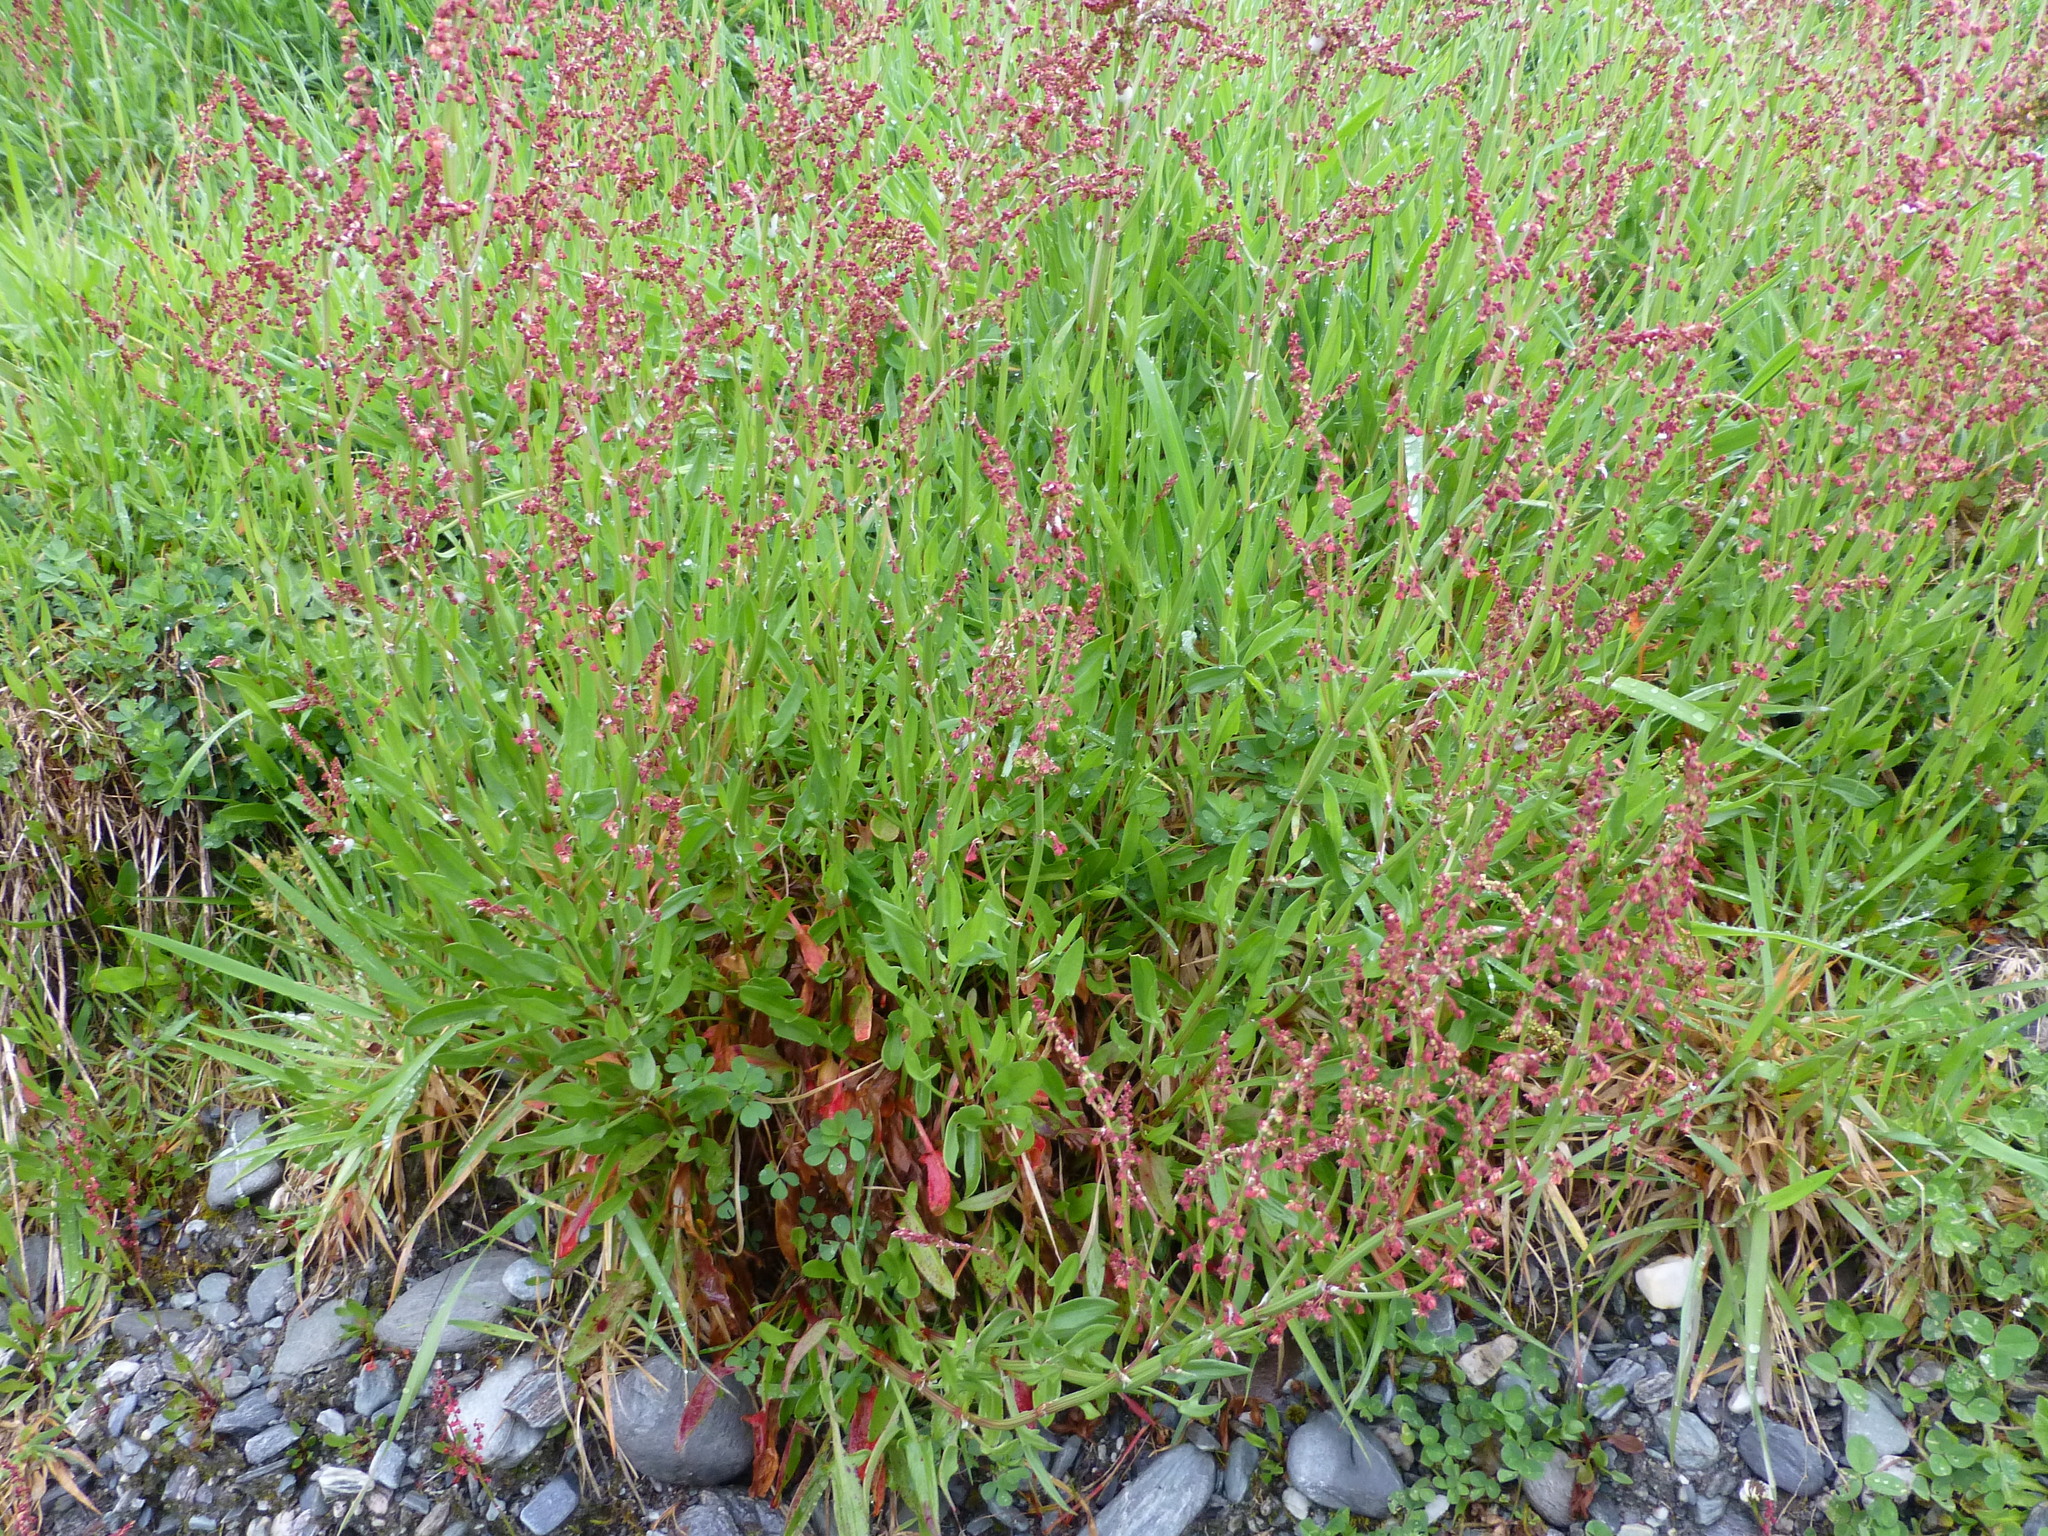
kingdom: Plantae
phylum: Tracheophyta
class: Magnoliopsida
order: Caryophyllales
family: Polygonaceae
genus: Rumex
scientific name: Rumex acetosella
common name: Common sheep sorrel
